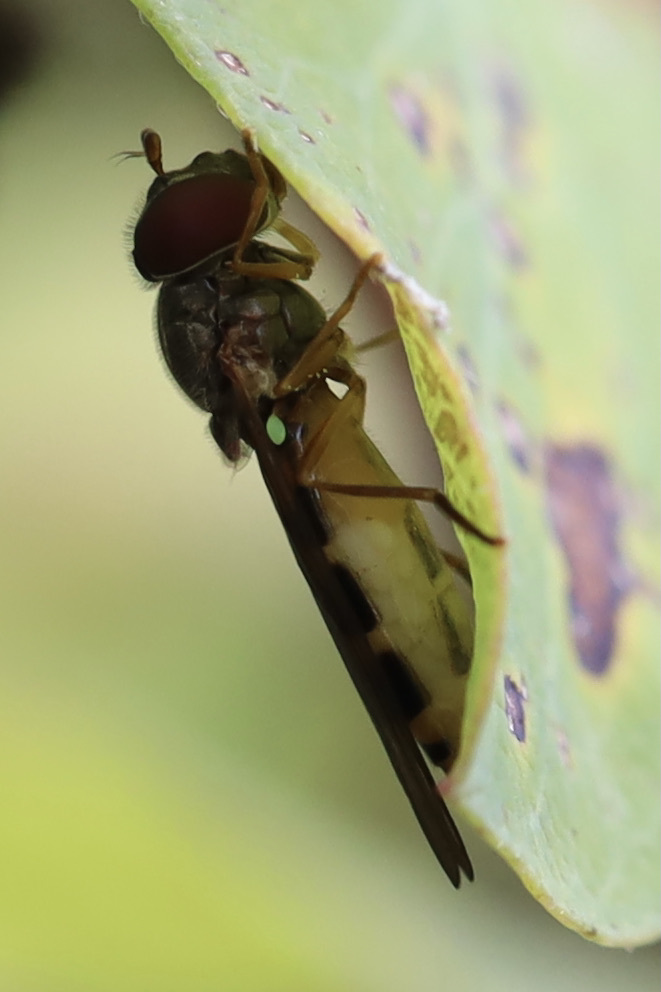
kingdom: Animalia
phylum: Arthropoda
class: Insecta
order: Diptera
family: Syrphidae
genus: Melanostoma
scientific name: Melanostoma mellina
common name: Hover fly
